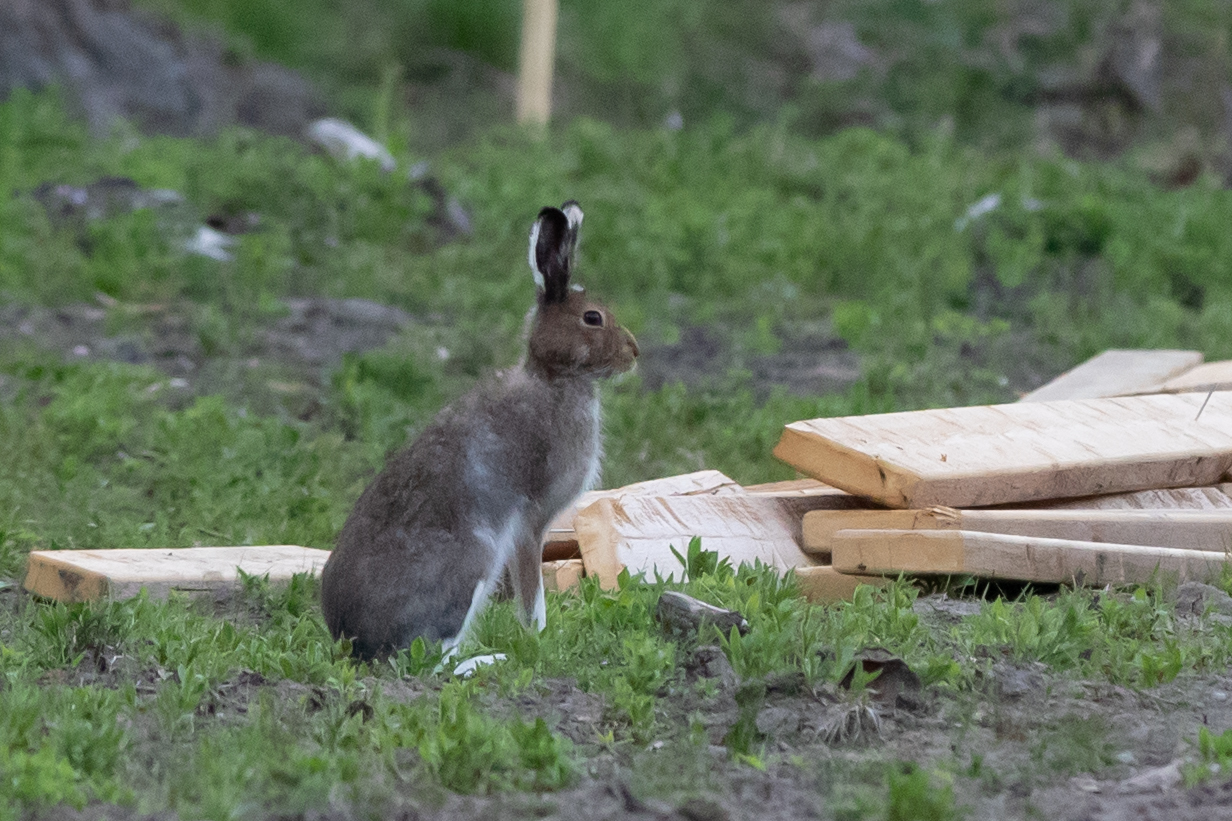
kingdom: Animalia
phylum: Chordata
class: Mammalia
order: Lagomorpha
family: Leporidae
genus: Lepus
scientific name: Lepus timidus
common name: Mountain hare
